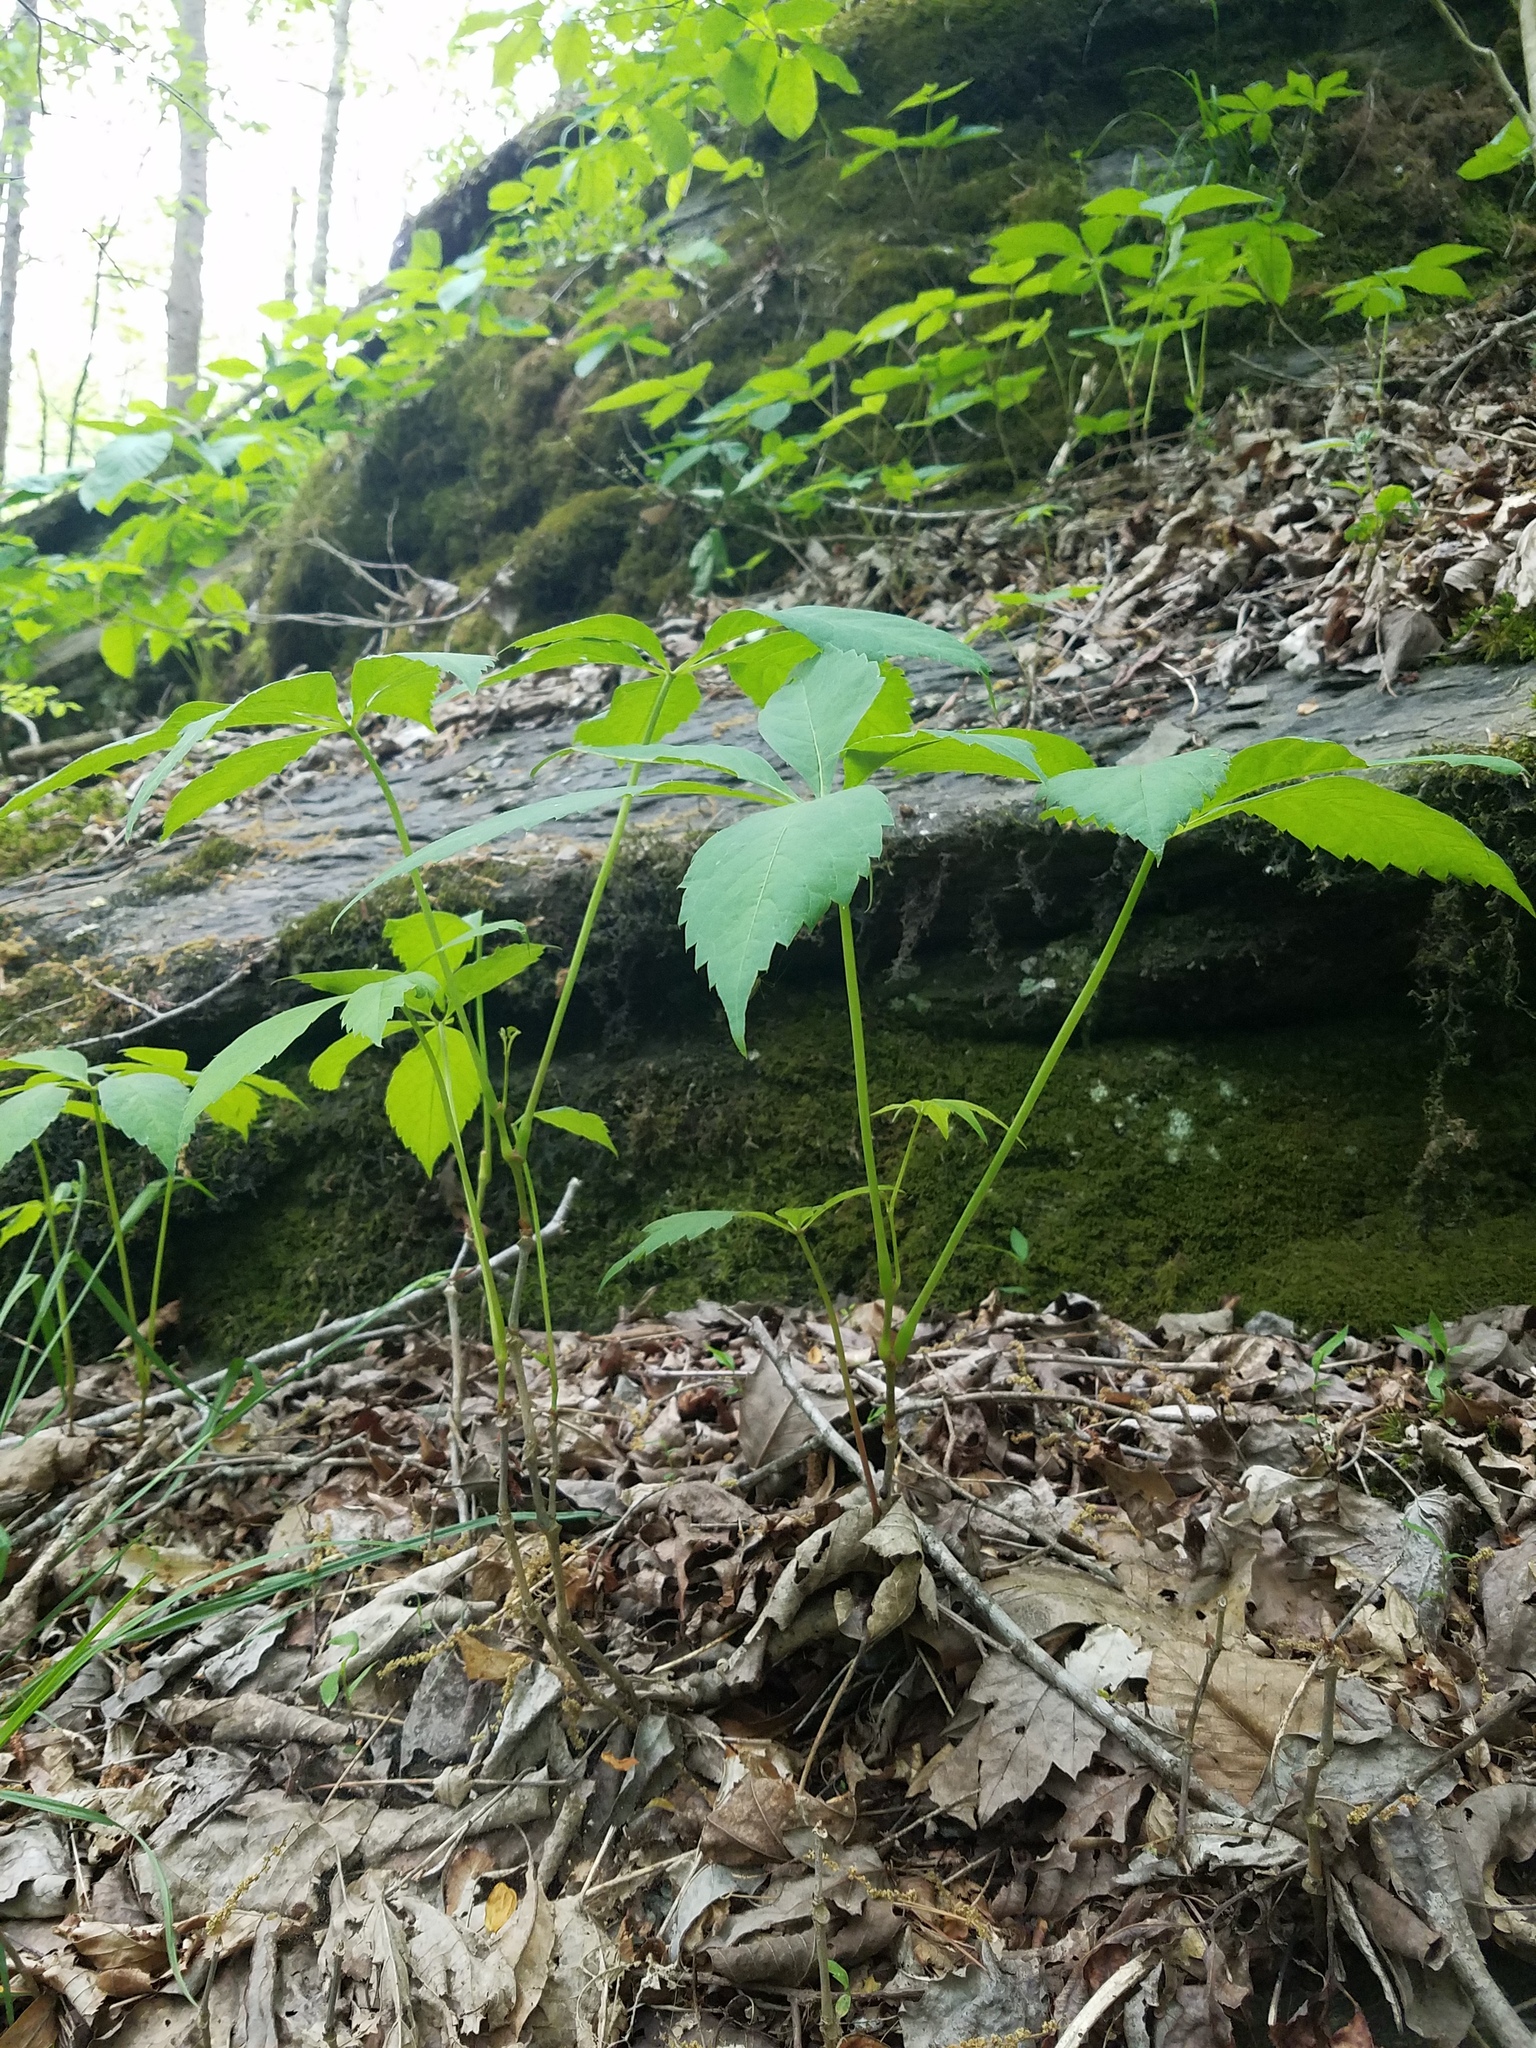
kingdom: Plantae
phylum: Tracheophyta
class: Magnoliopsida
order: Vitales
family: Vitaceae
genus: Parthenocissus
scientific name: Parthenocissus quinquefolia
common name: Virginia-creeper
